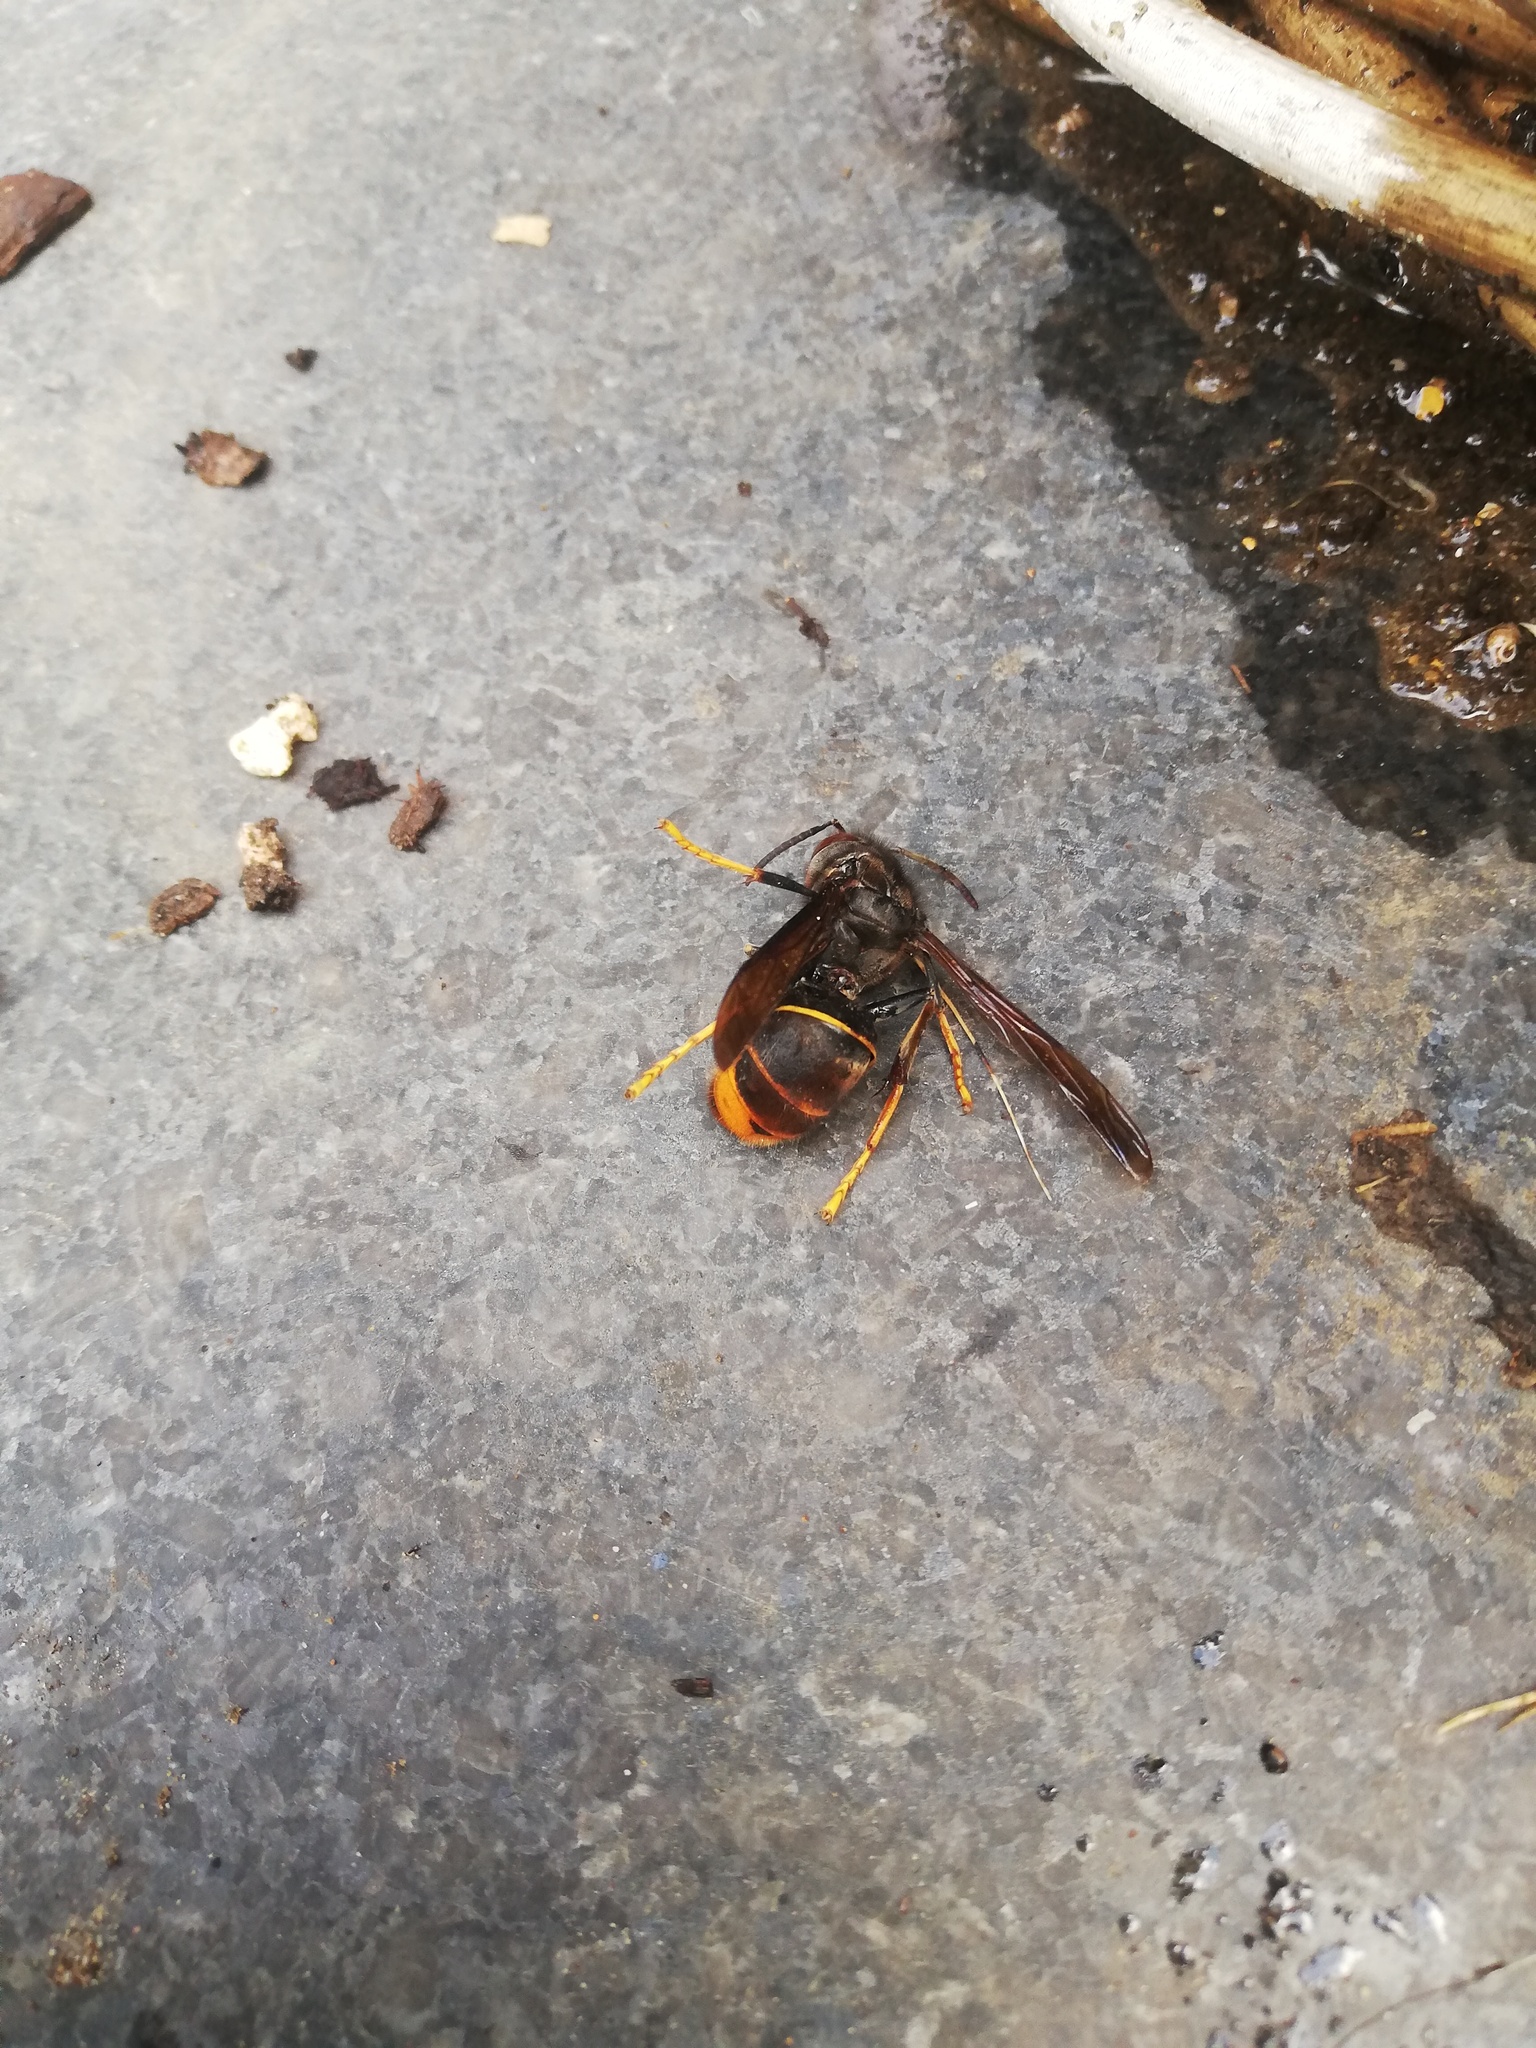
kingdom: Animalia
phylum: Arthropoda
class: Insecta
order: Hymenoptera
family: Vespidae
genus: Vespa
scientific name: Vespa velutina
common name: Asian hornet
